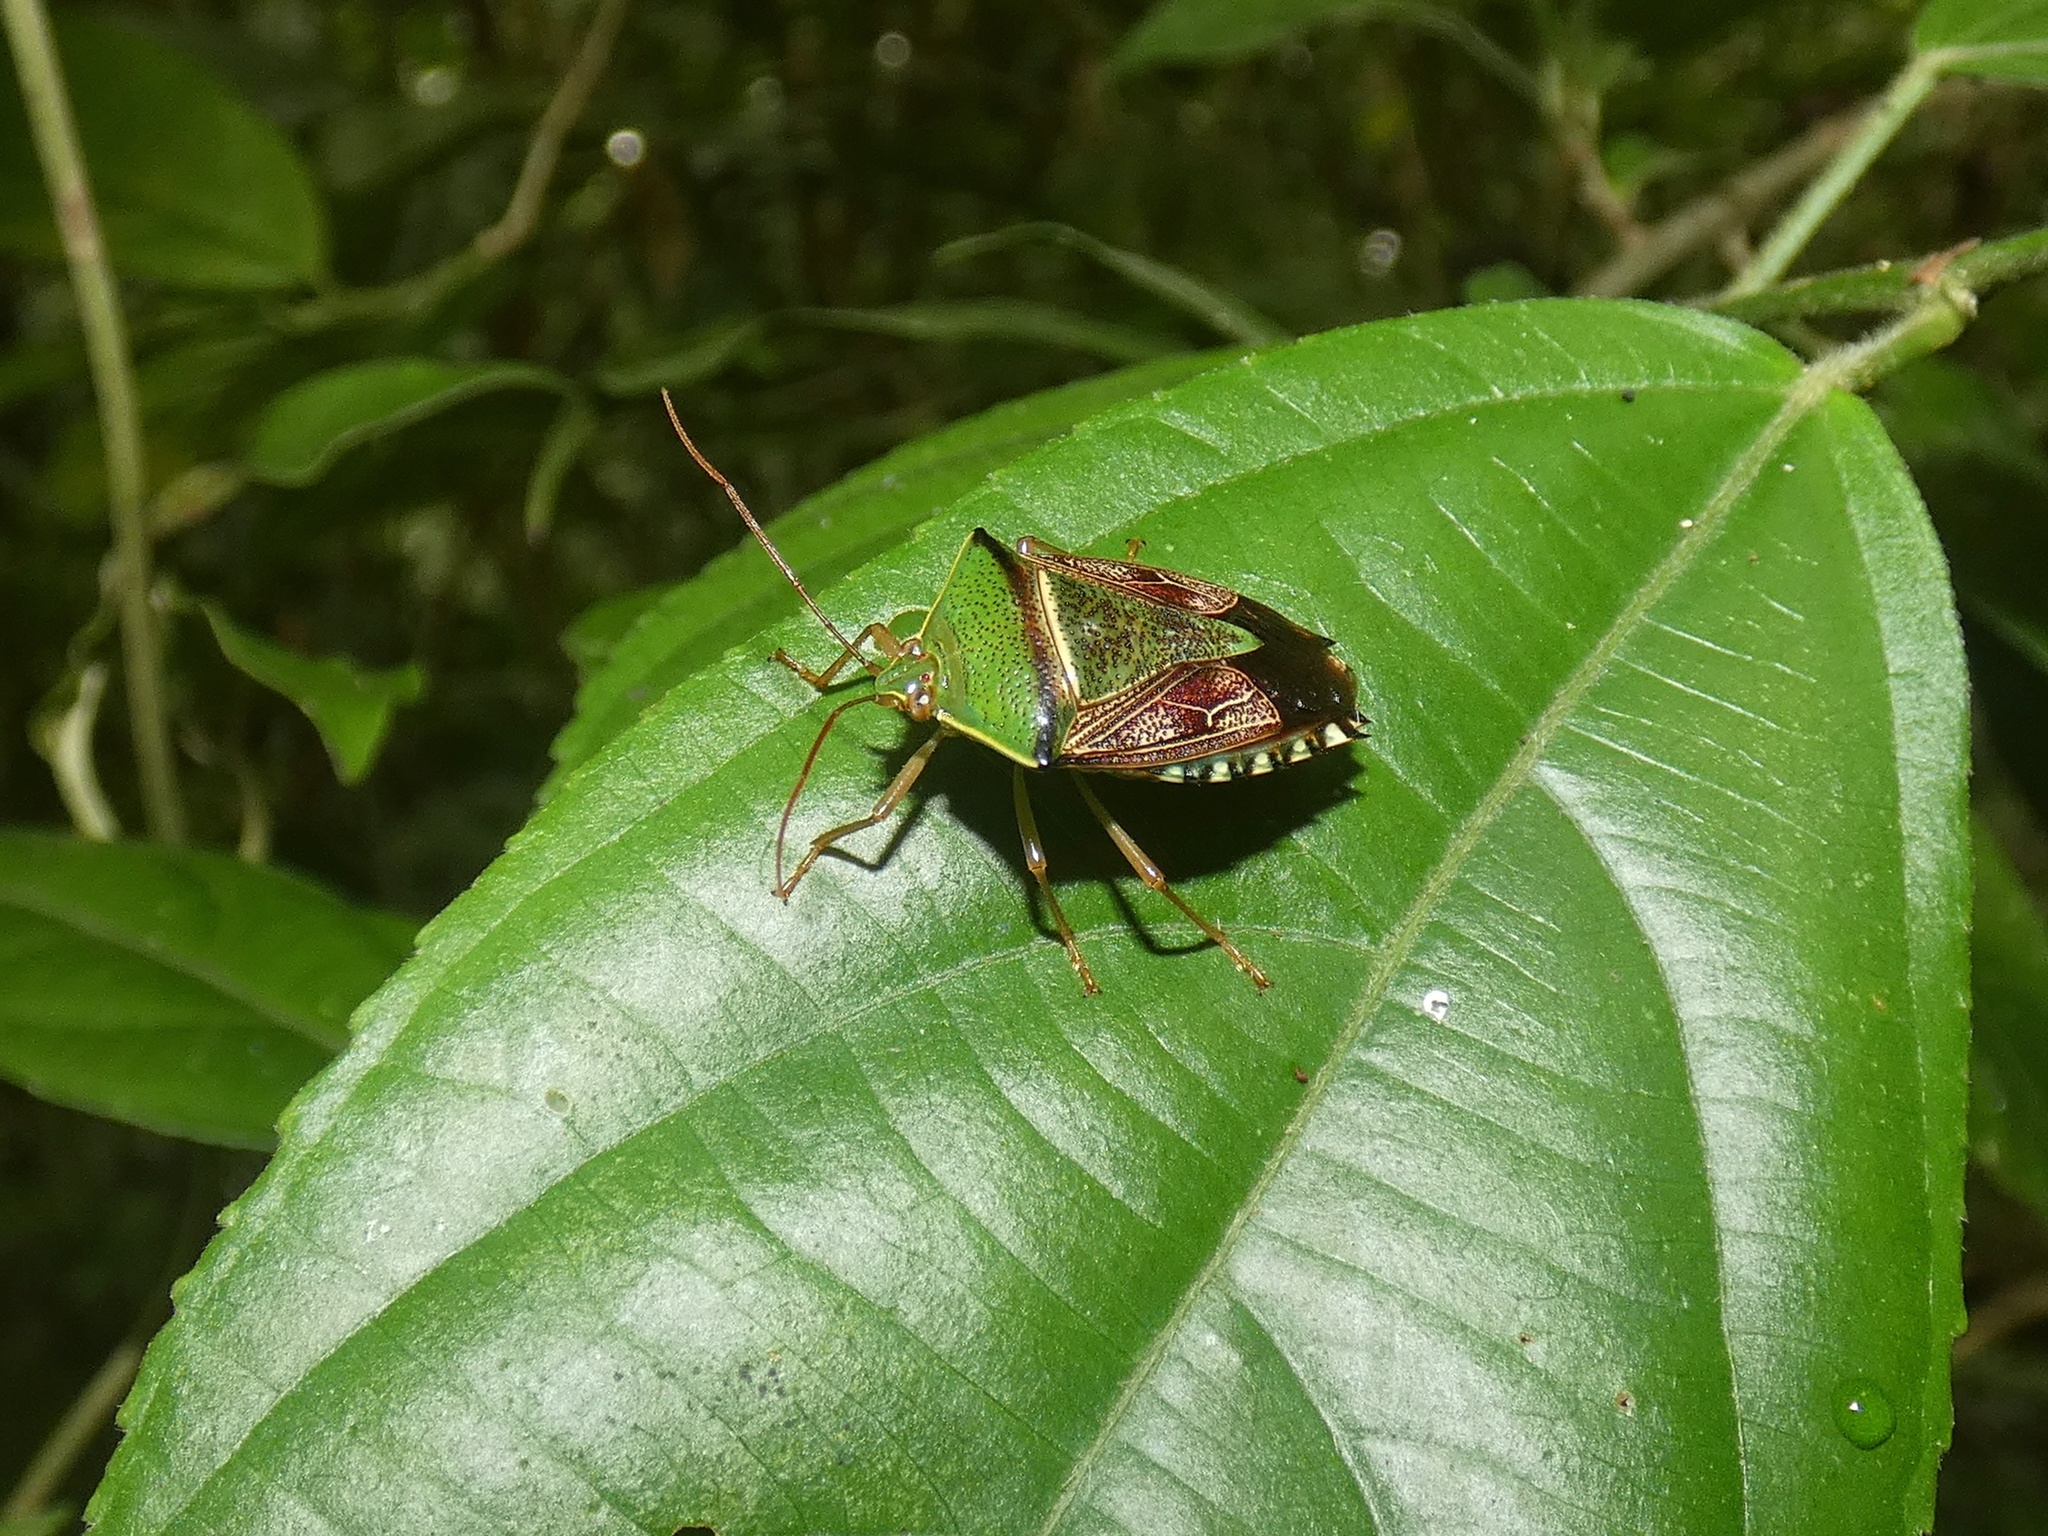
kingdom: Animalia
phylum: Arthropoda
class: Insecta
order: Hemiptera
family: Pentatomidae
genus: Hypoxys
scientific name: Hypoxys eburatulus
